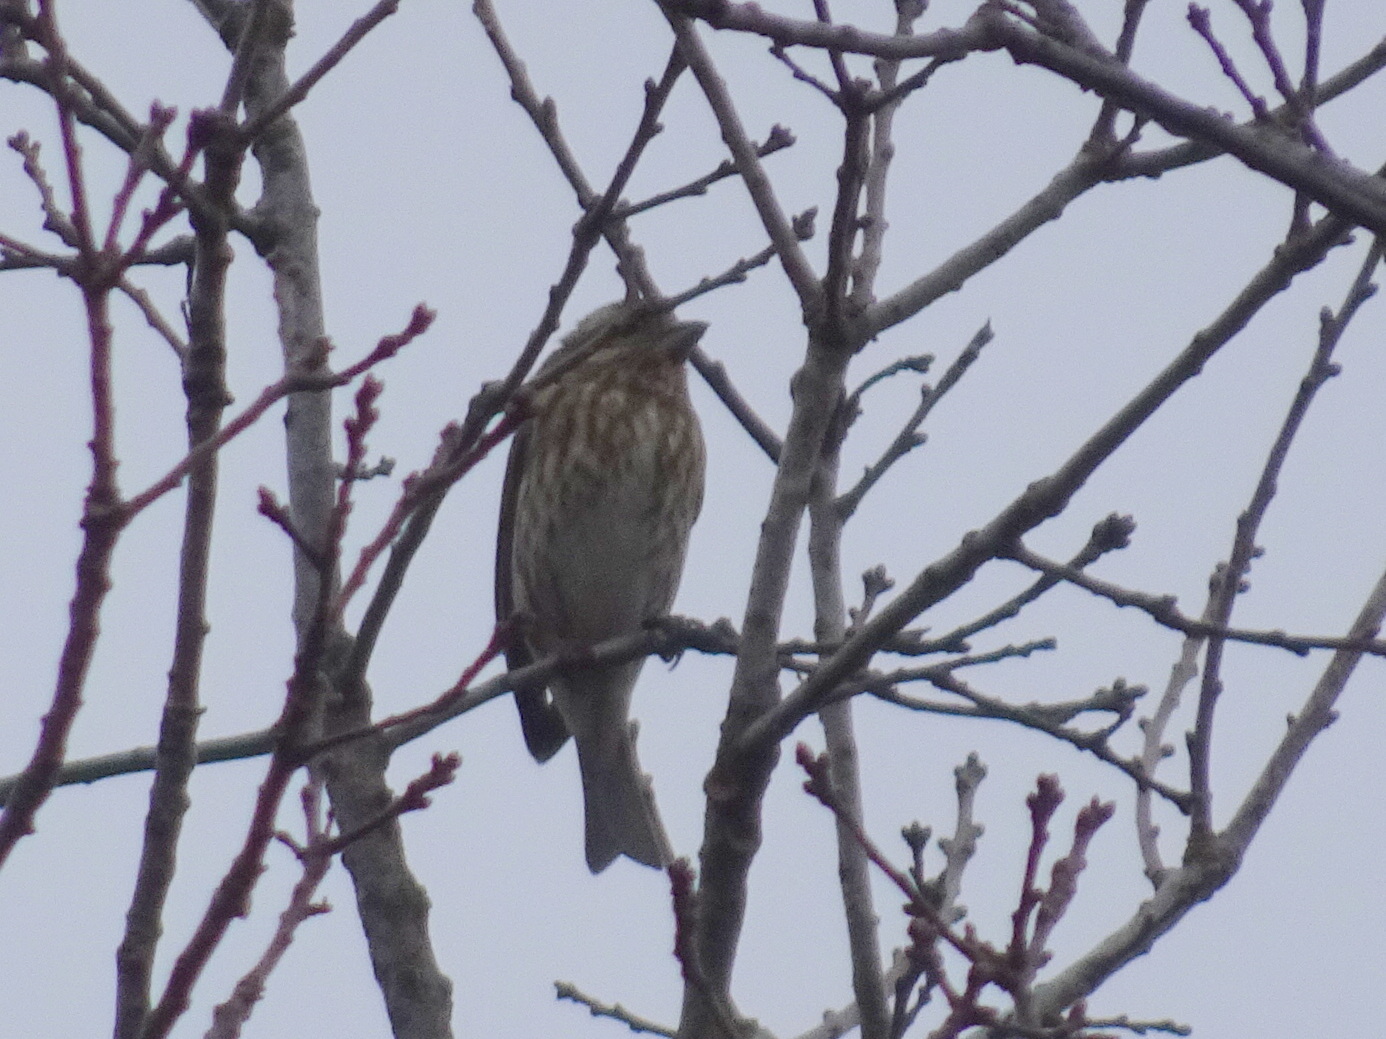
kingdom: Animalia
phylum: Chordata
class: Aves
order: Passeriformes
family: Fringillidae
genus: Haemorhous
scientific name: Haemorhous purpureus
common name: Purple finch
